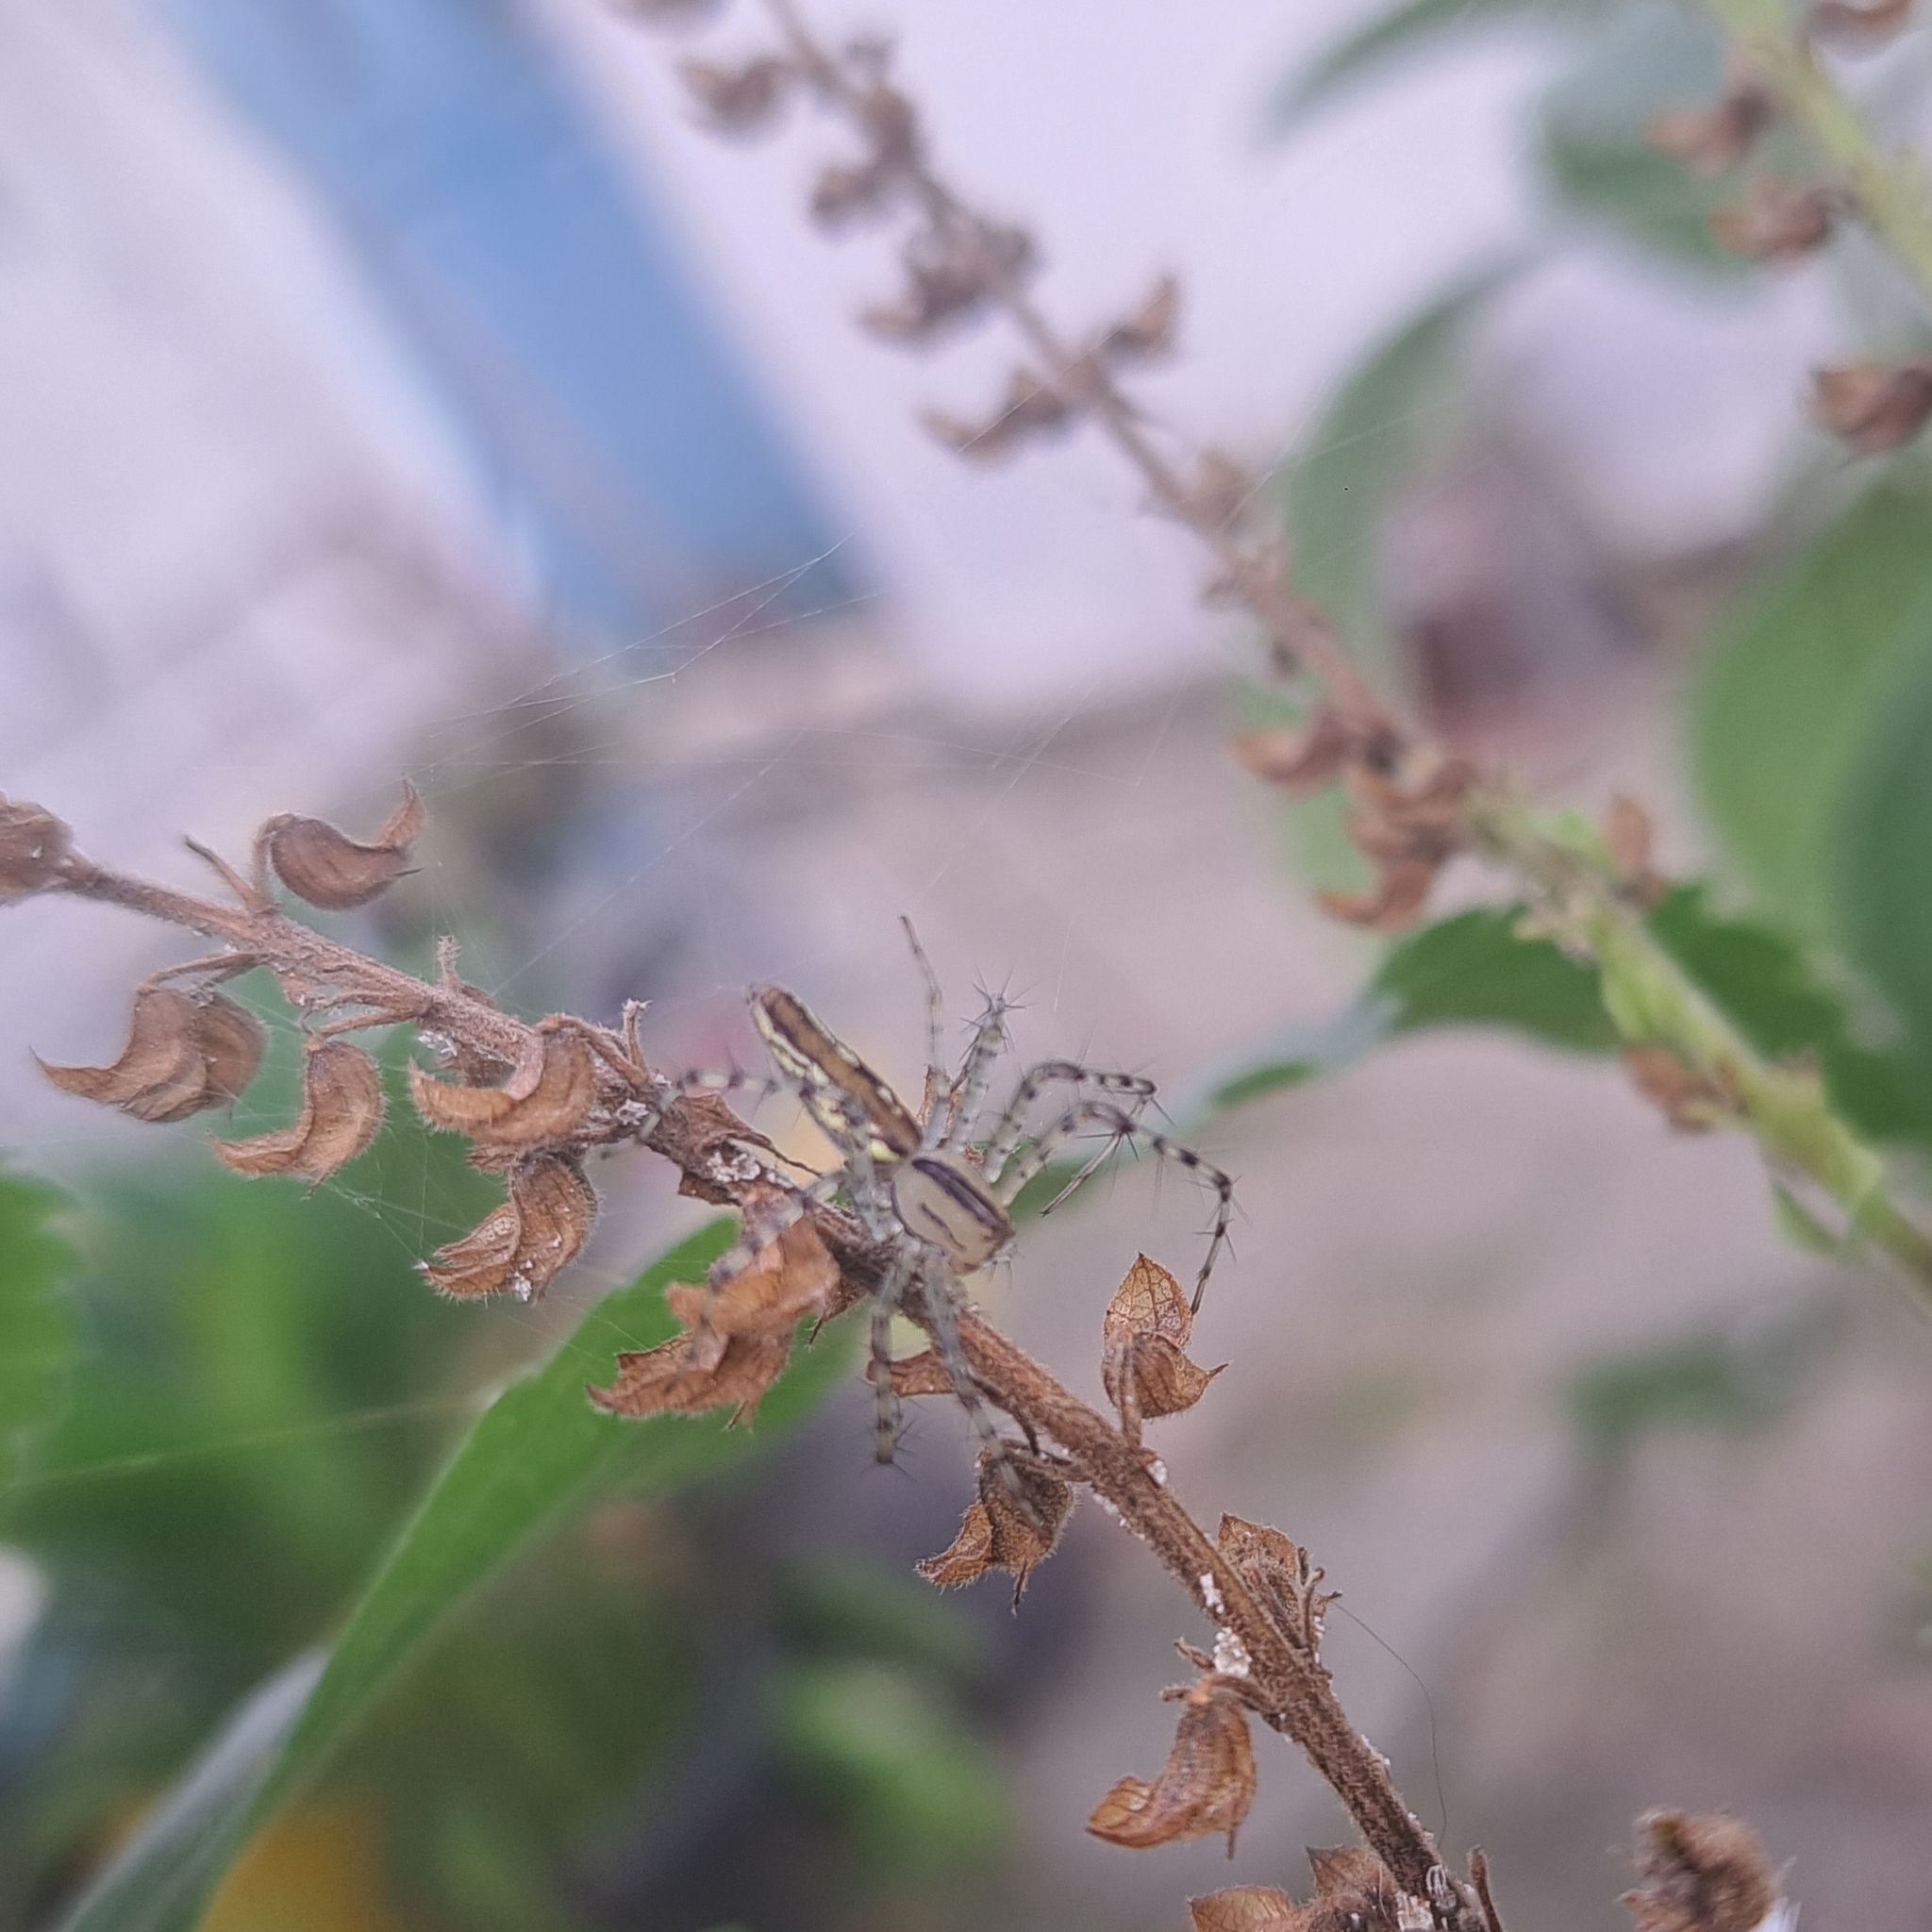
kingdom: Animalia
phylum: Arthropoda
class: Arachnida
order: Araneae
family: Oxyopidae
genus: Peucetia
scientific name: Peucetia rubrolineata
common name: Lynx spiders
